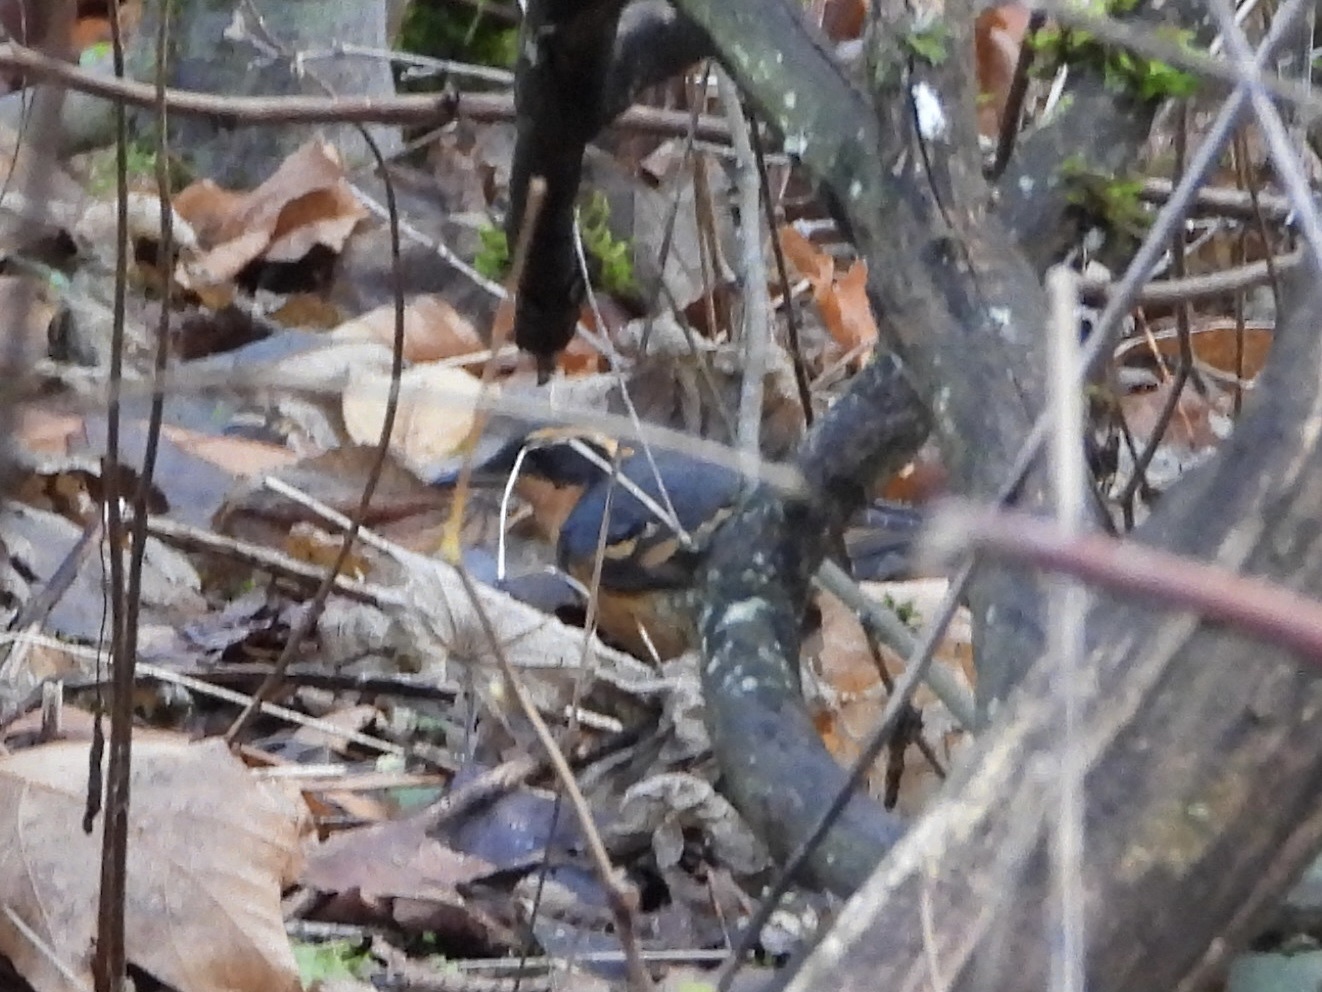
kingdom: Animalia
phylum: Chordata
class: Aves
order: Passeriformes
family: Turdidae
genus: Ixoreus
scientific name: Ixoreus naevius
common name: Varied thrush
